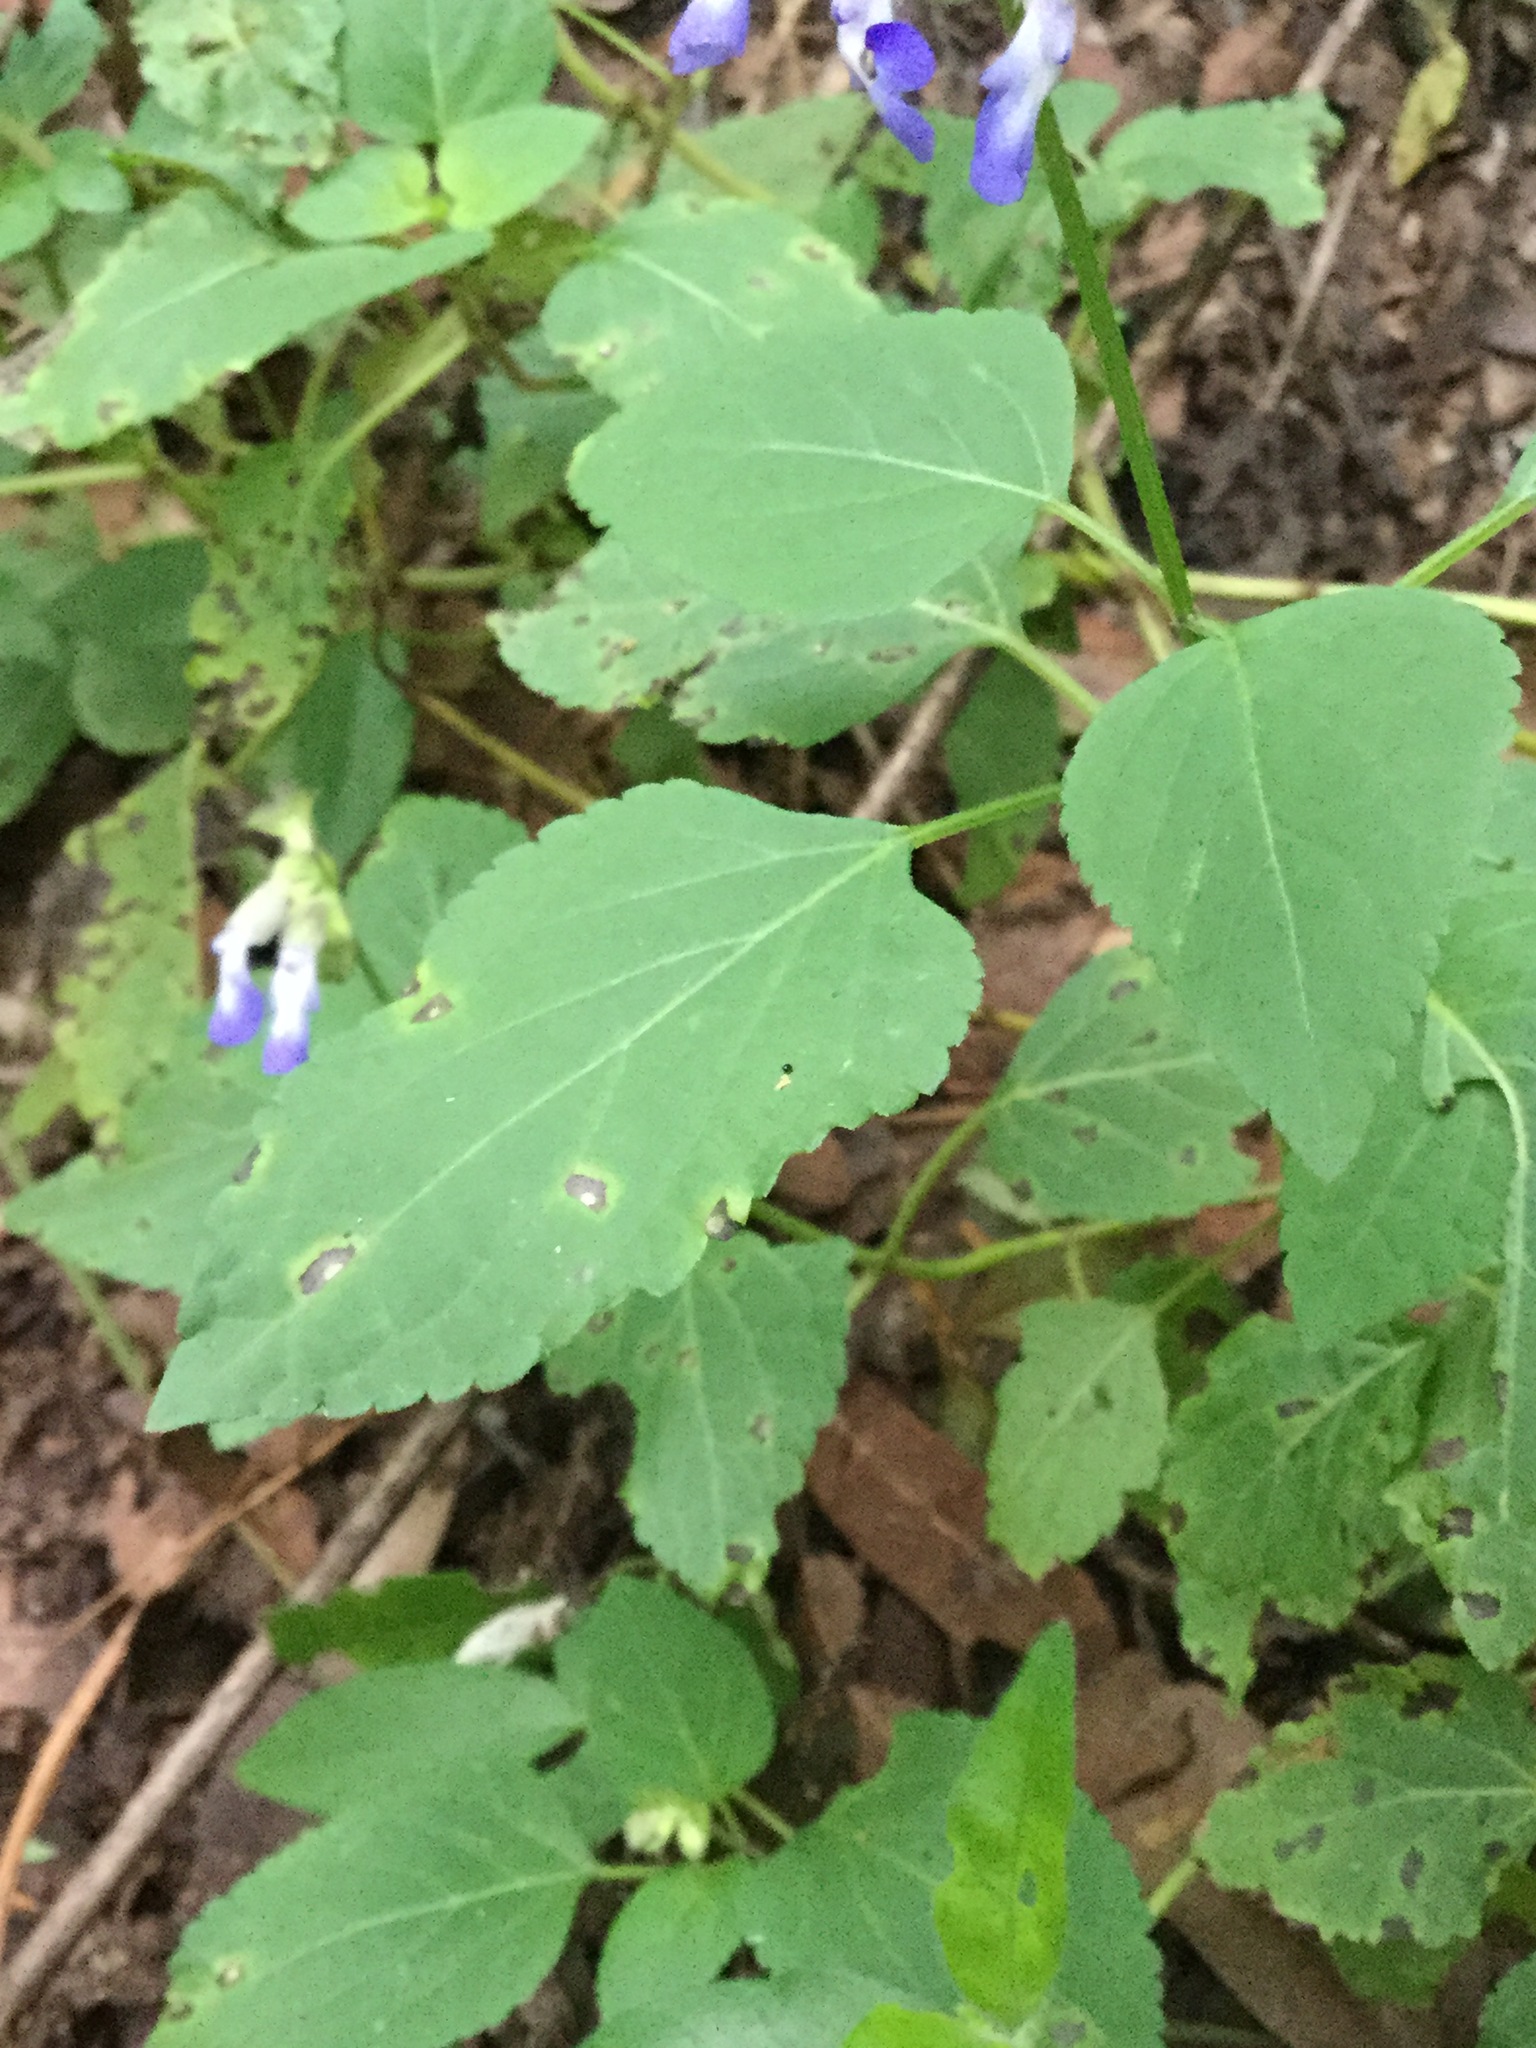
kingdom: Plantae
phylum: Tracheophyta
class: Magnoliopsida
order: Lamiales
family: Lamiaceae
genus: Salvia
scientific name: Salvia compsostachys
